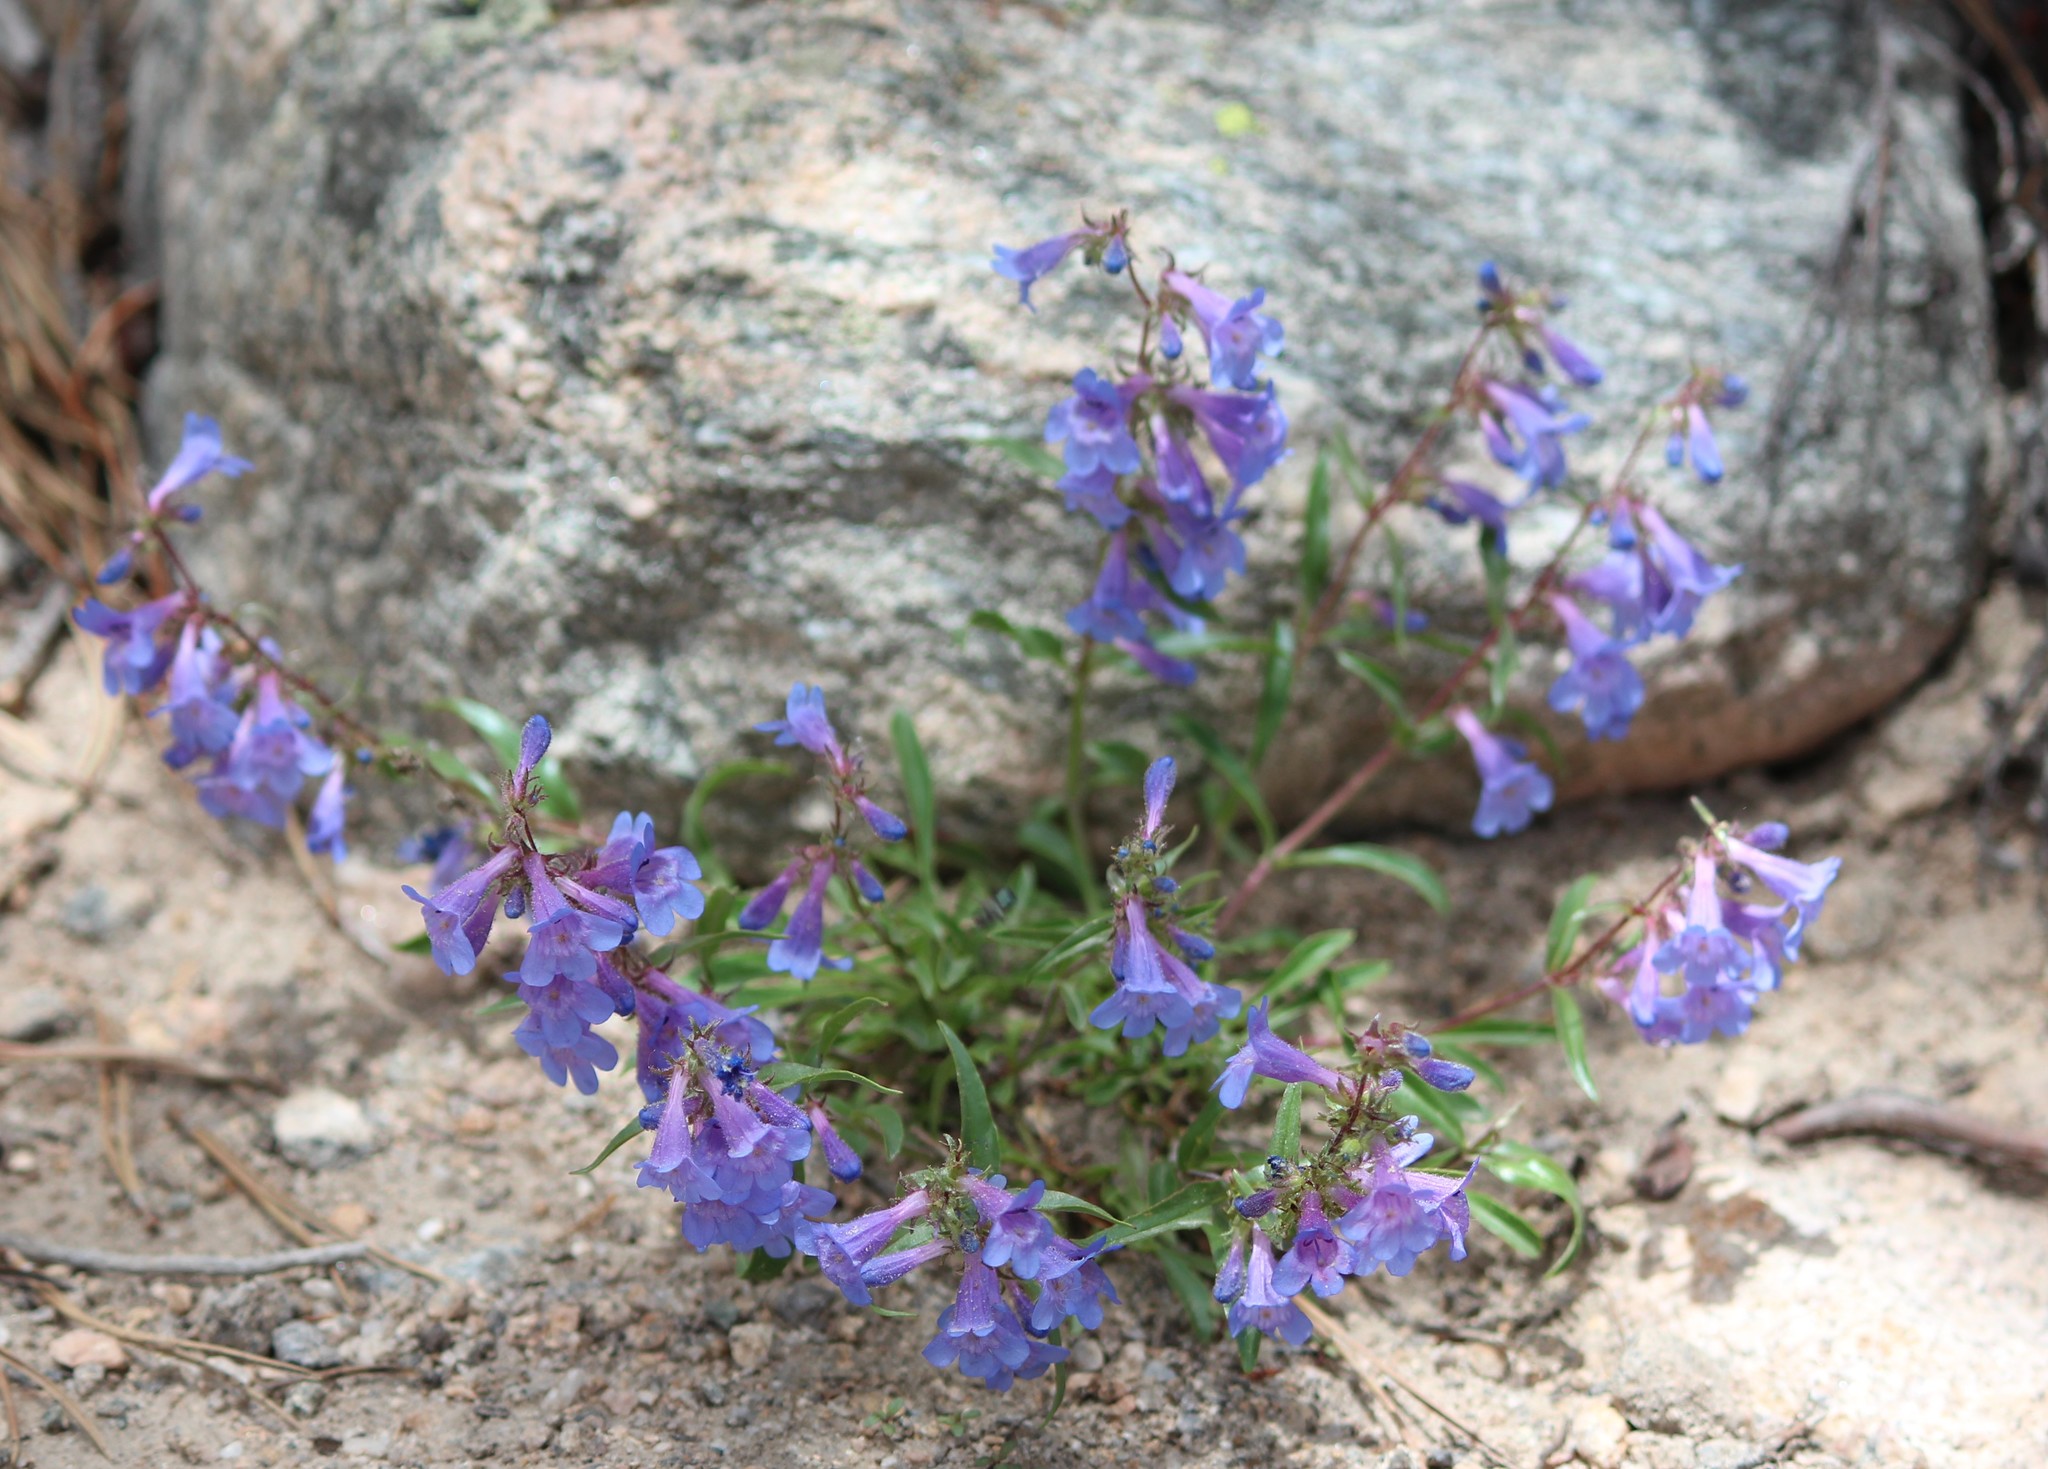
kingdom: Plantae
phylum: Tracheophyta
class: Magnoliopsida
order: Lamiales
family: Plantaginaceae
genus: Penstemon
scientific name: Penstemon virens
